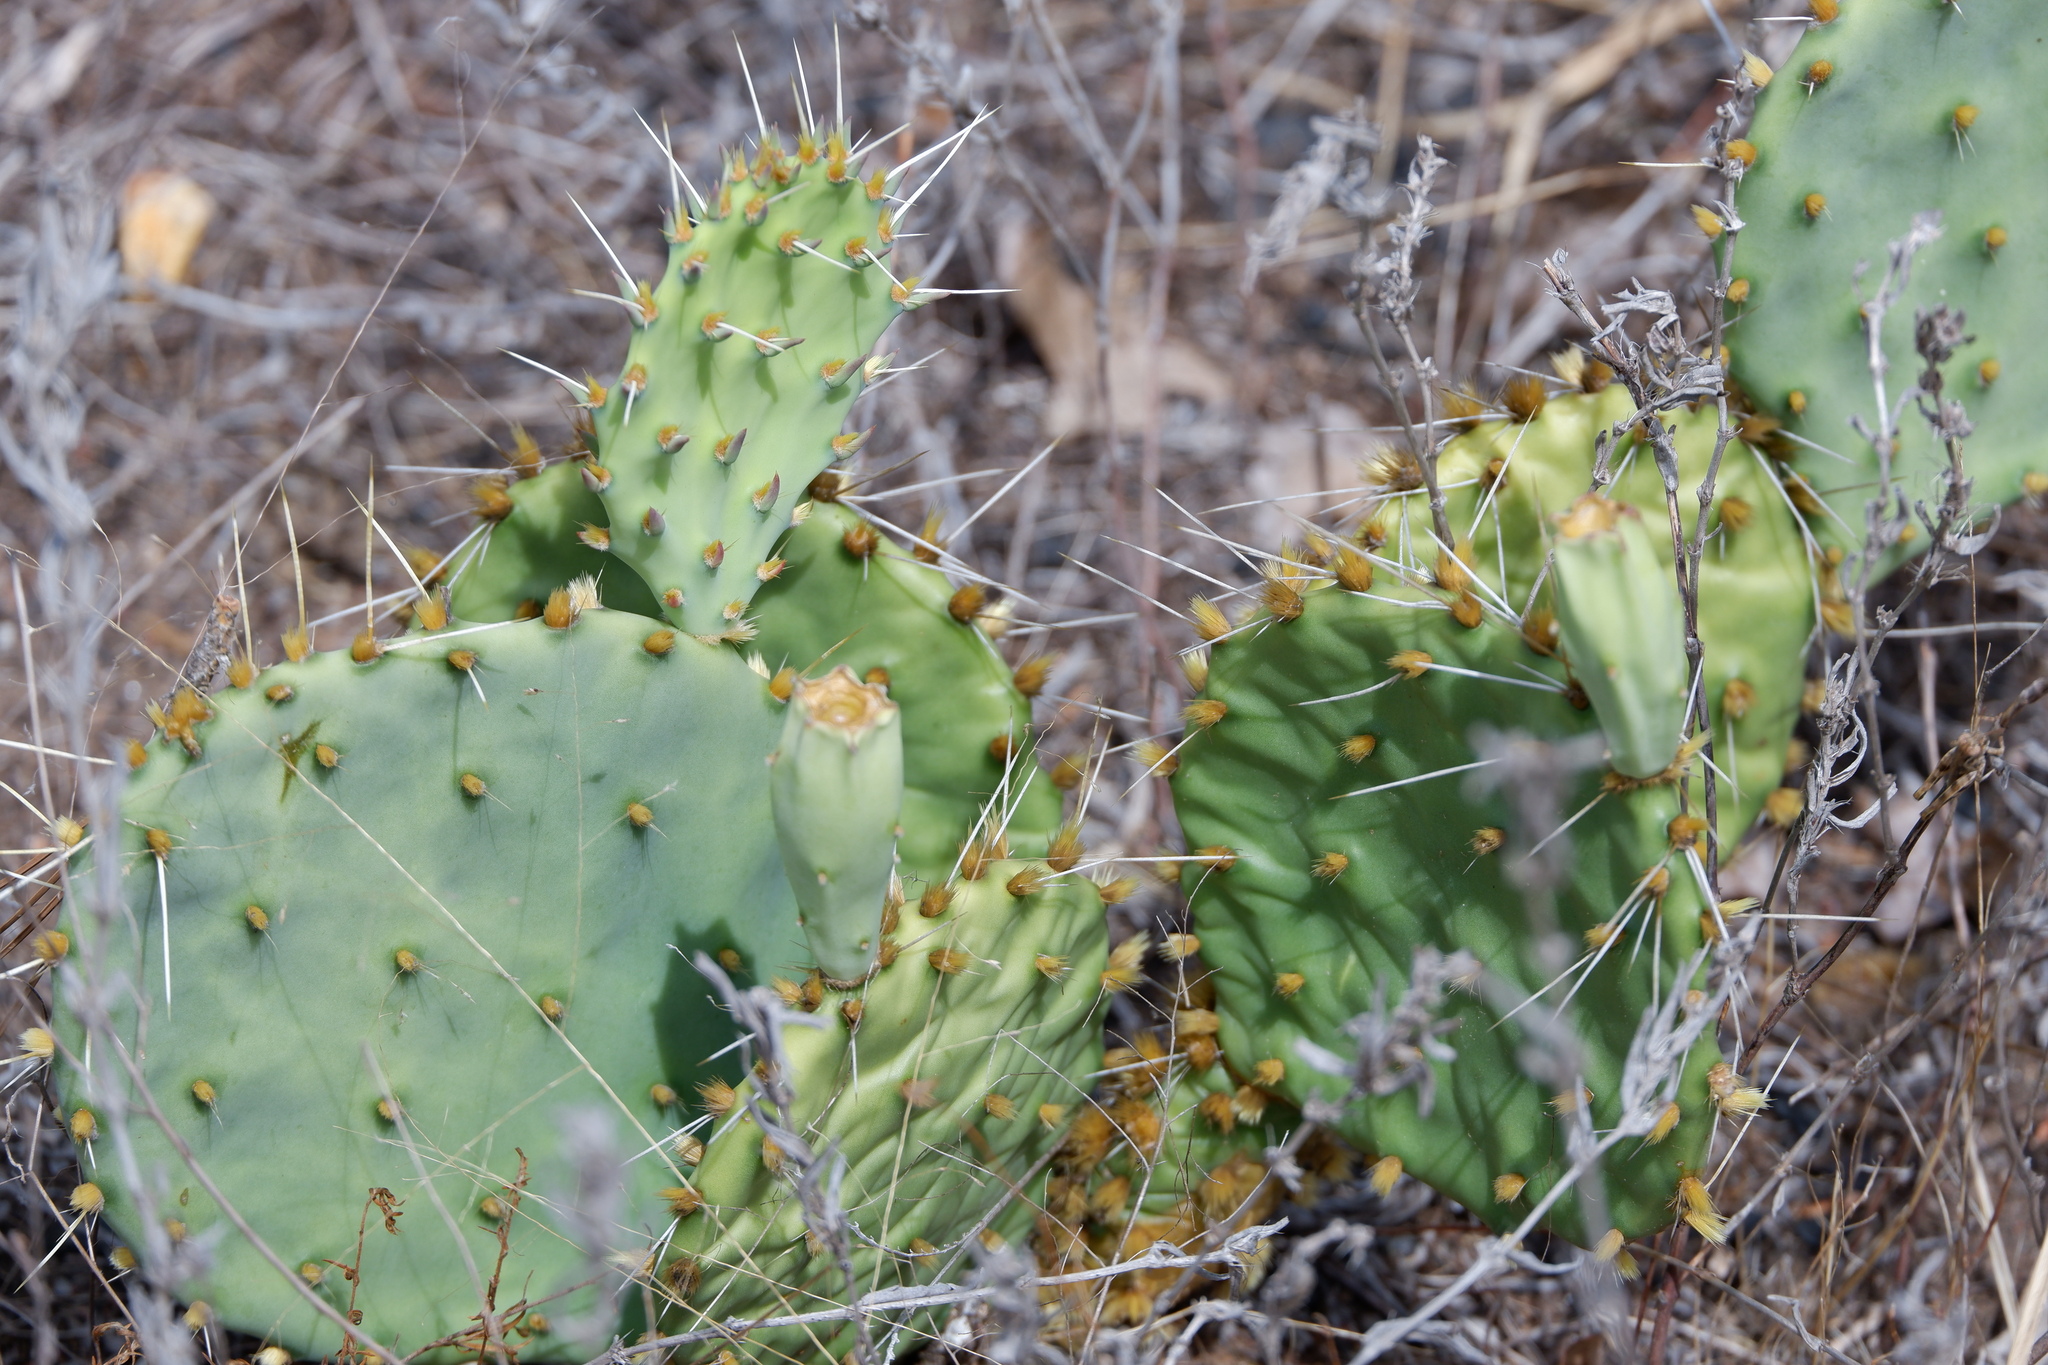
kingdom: Plantae
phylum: Tracheophyta
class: Magnoliopsida
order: Caryophyllales
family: Cactaceae
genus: Opuntia
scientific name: Opuntia macrorhiza
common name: Grassland pricklypear
